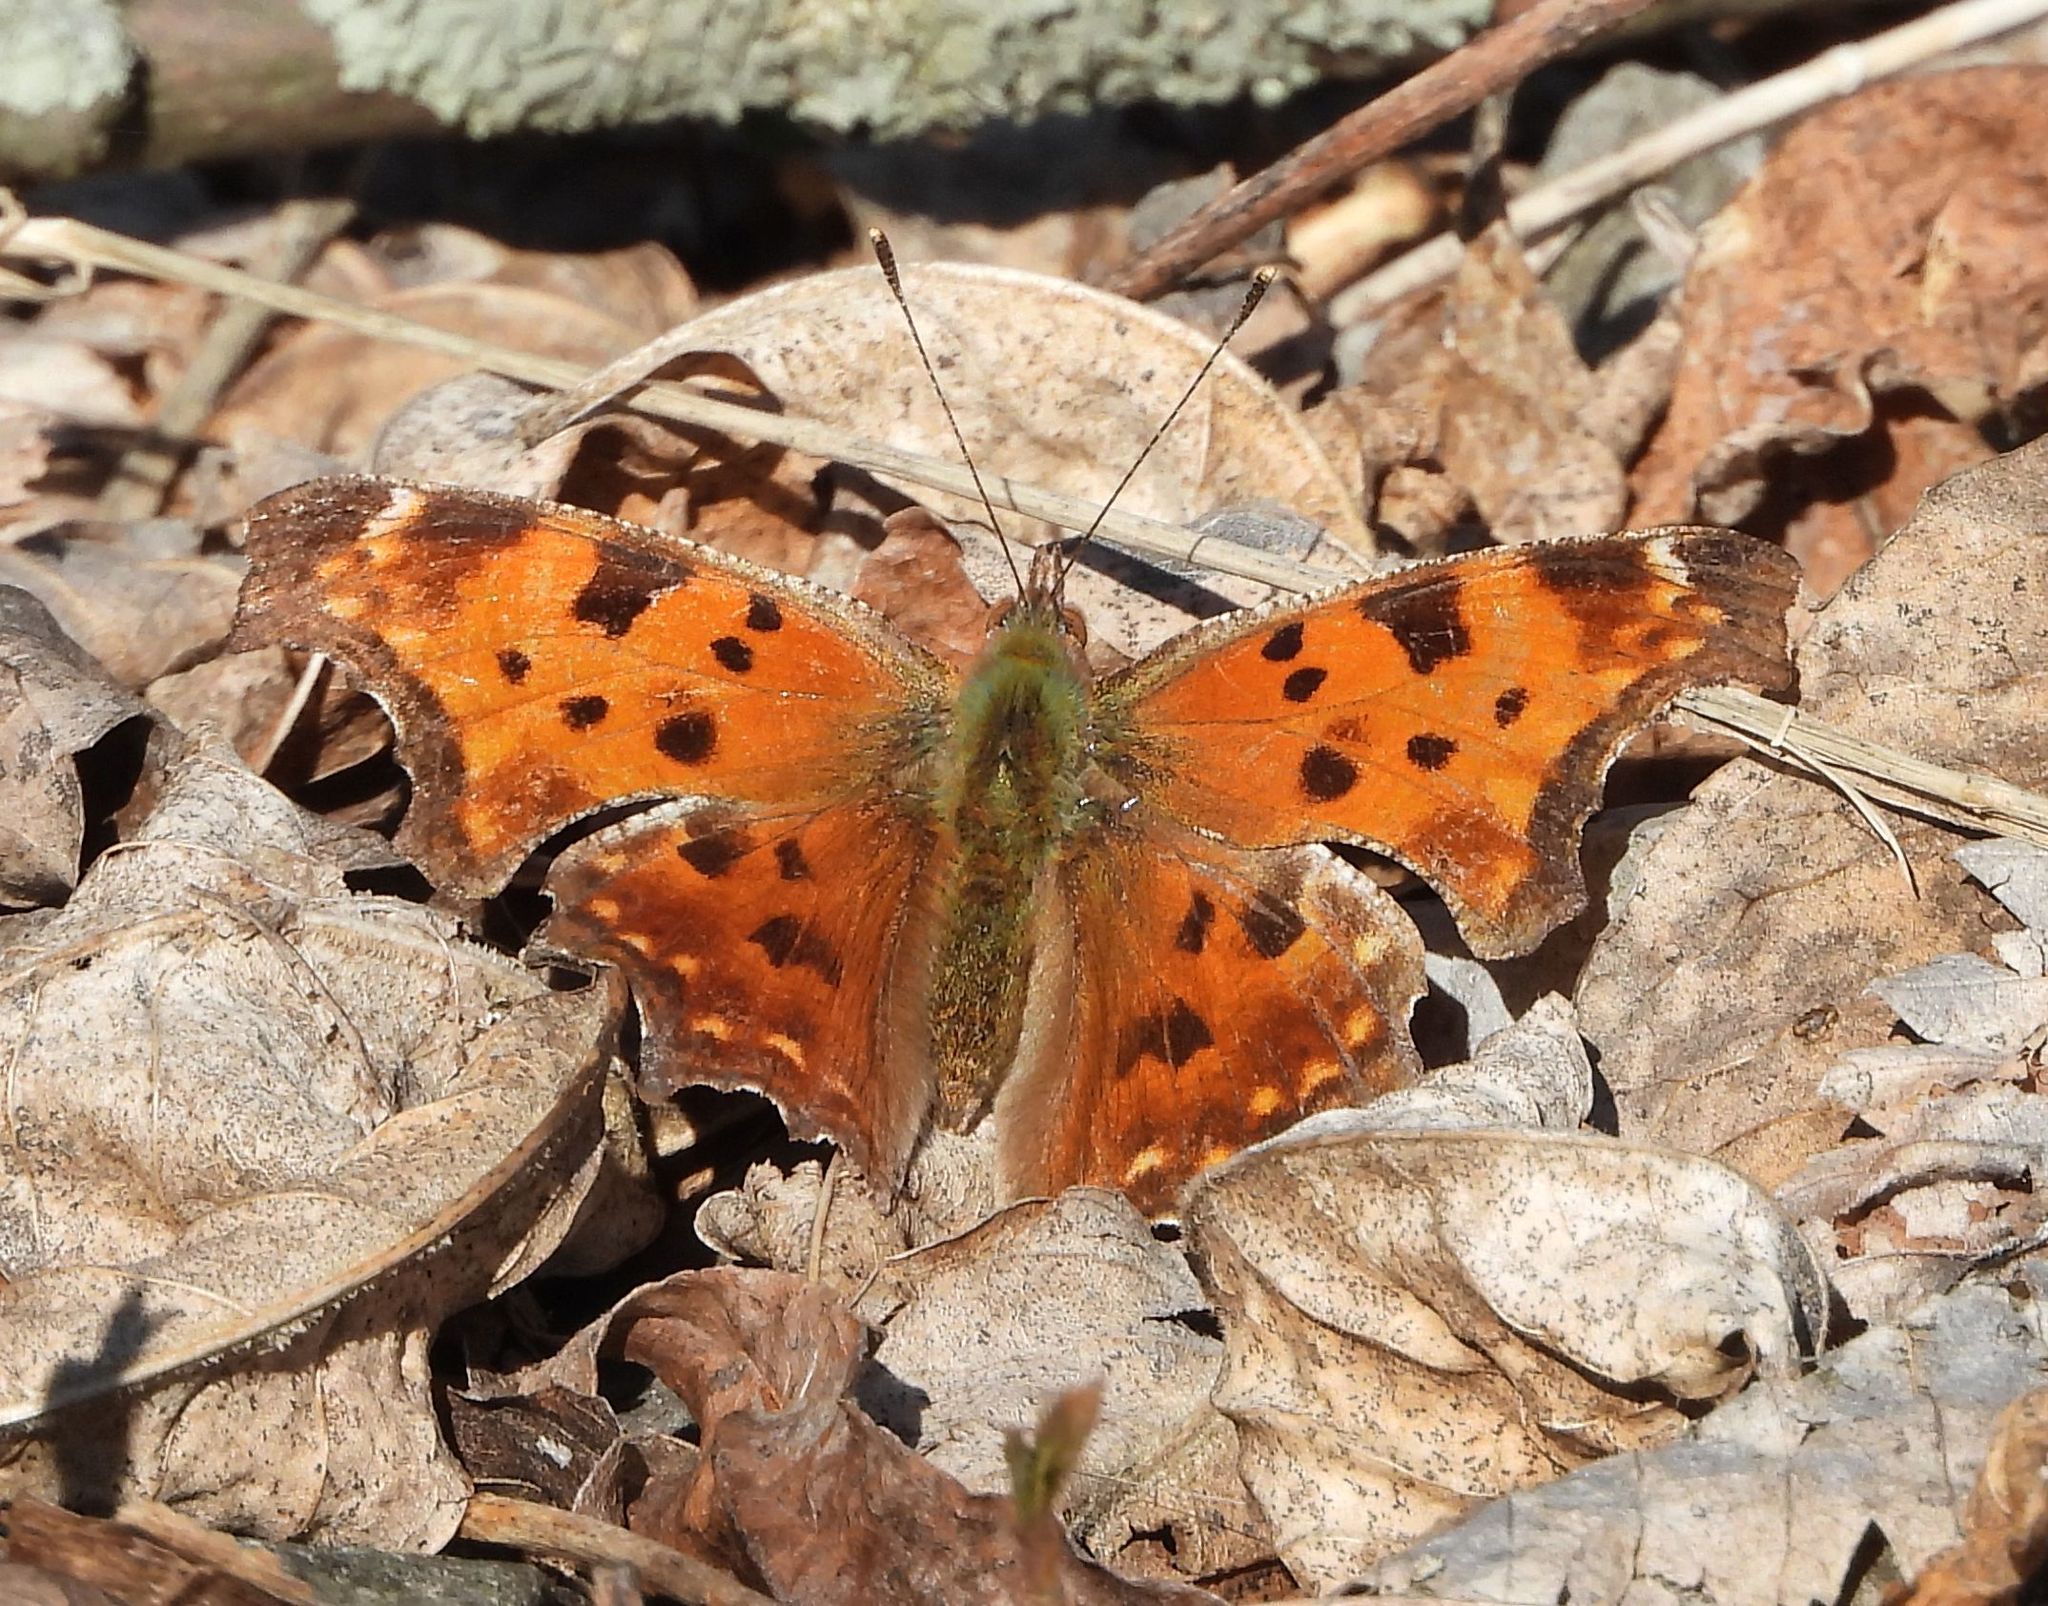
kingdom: Animalia
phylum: Arthropoda
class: Insecta
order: Lepidoptera
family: Nymphalidae
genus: Polygonia
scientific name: Polygonia comma
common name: Eastern comma
